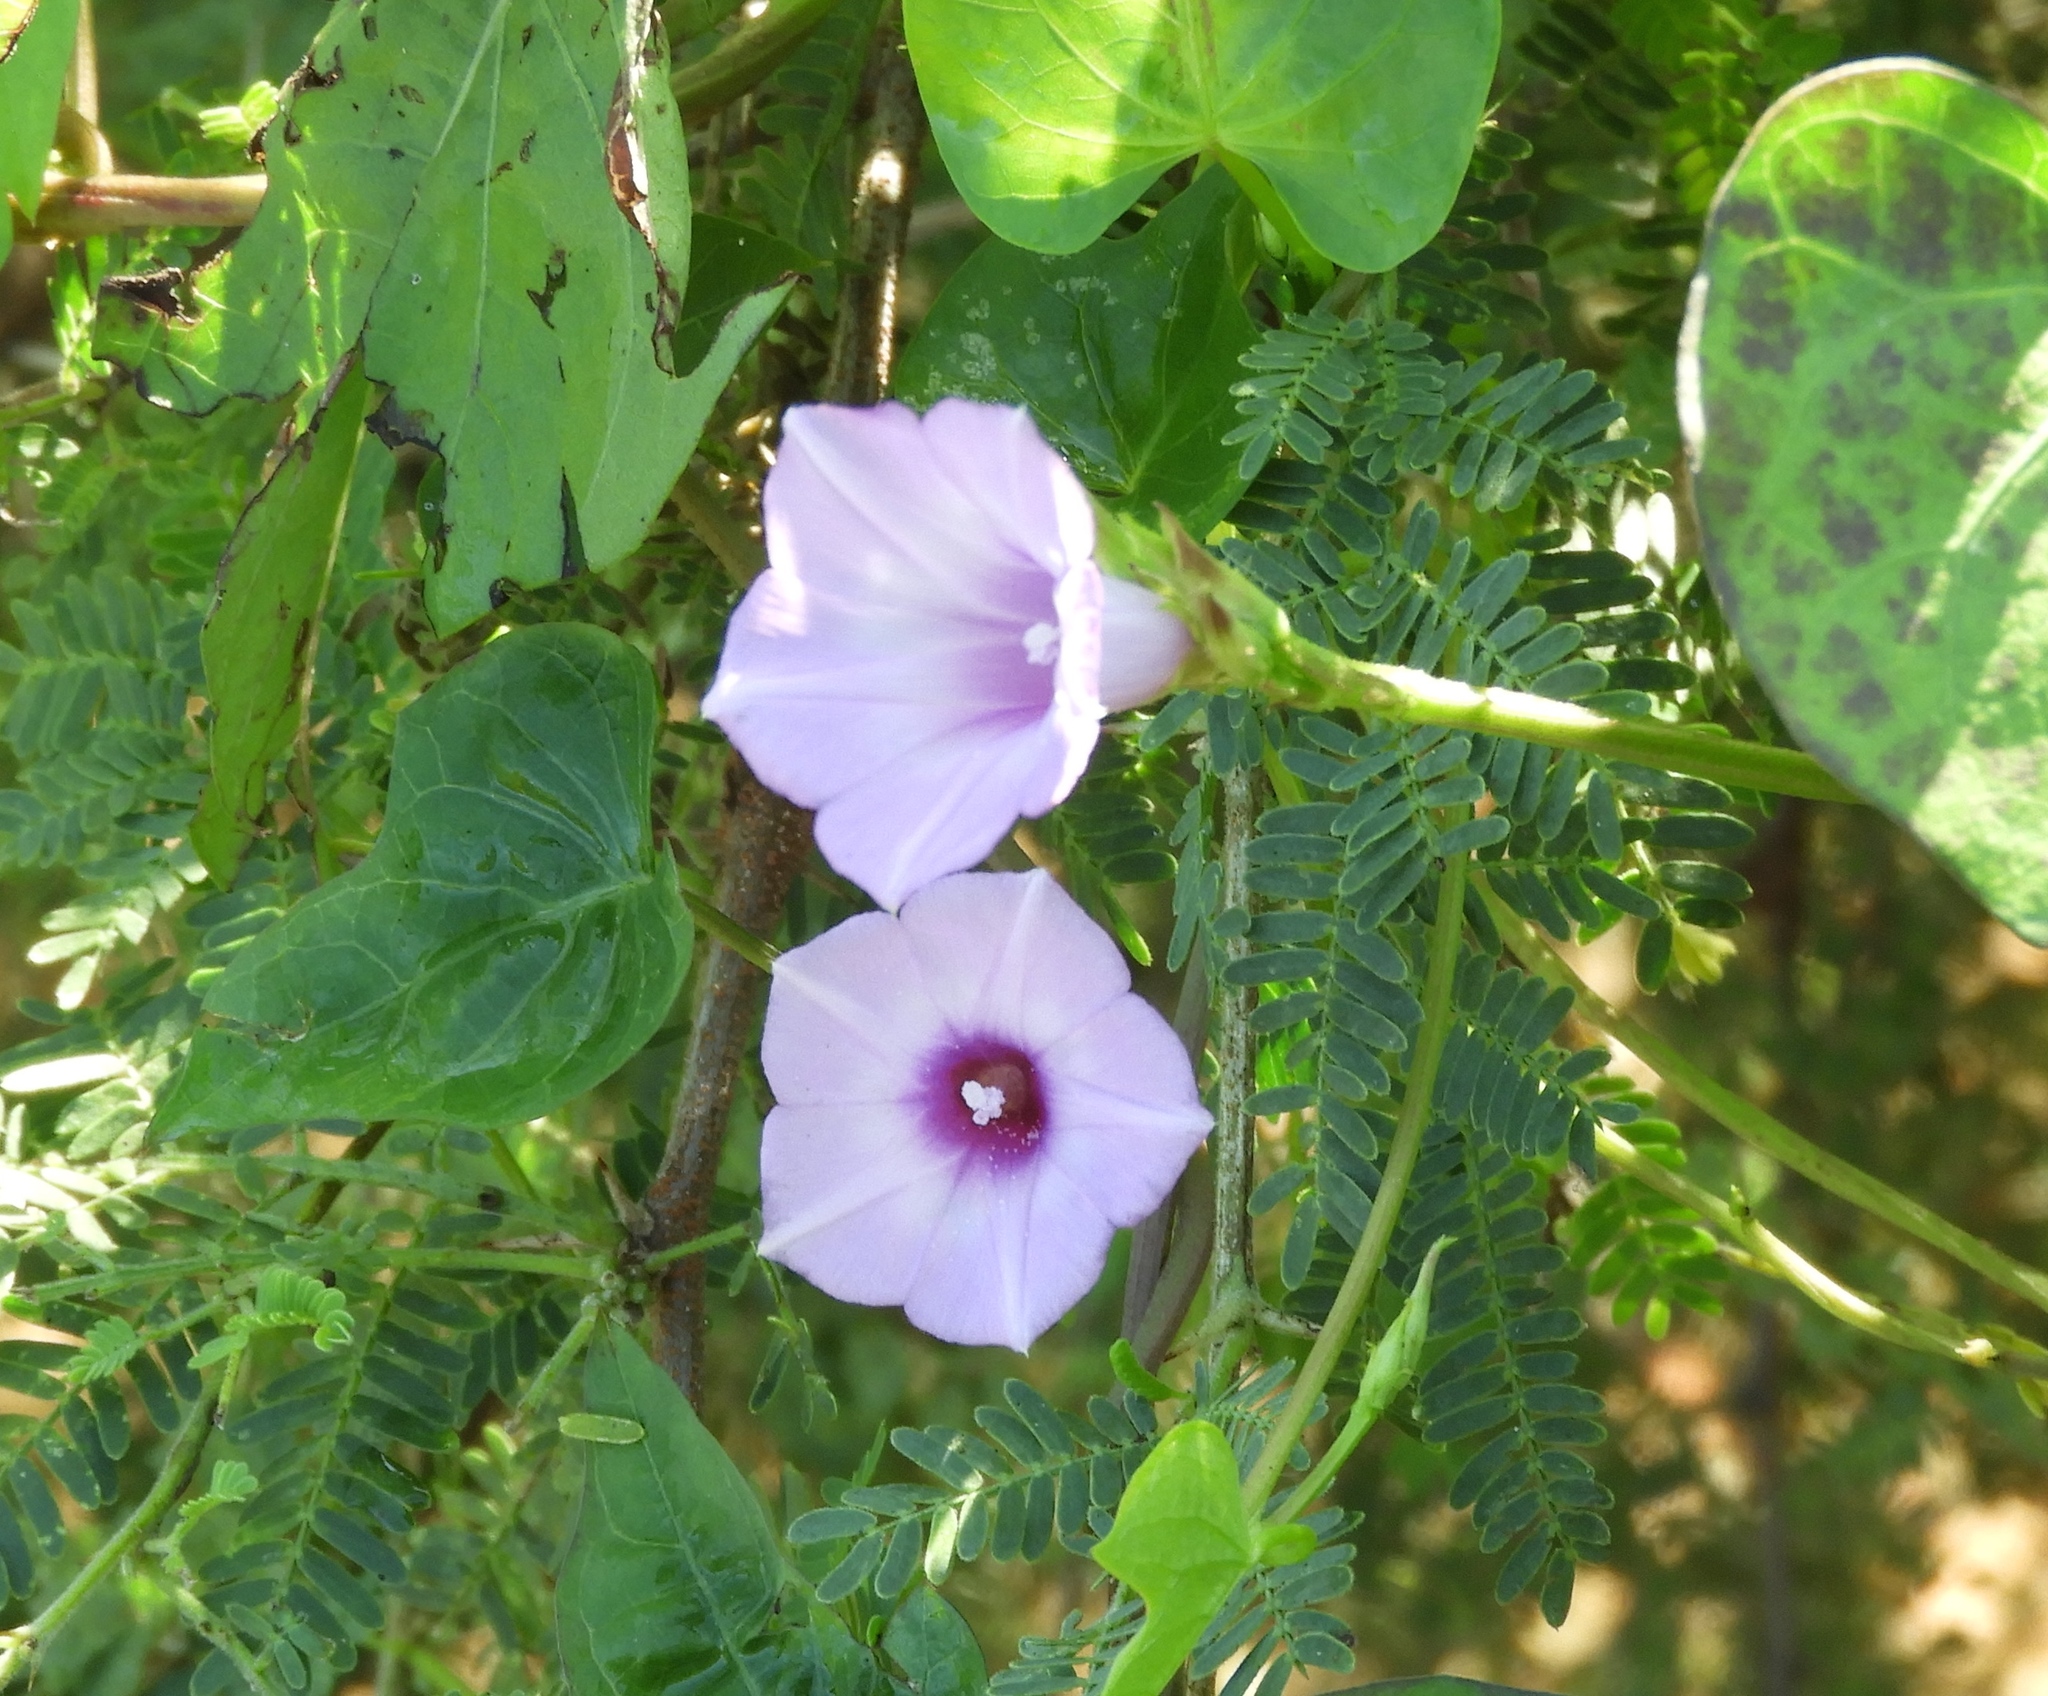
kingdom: Plantae
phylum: Tracheophyta
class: Magnoliopsida
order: Solanales
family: Convolvulaceae
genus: Ipomoea
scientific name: Ipomoea triloba
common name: Little-bell
